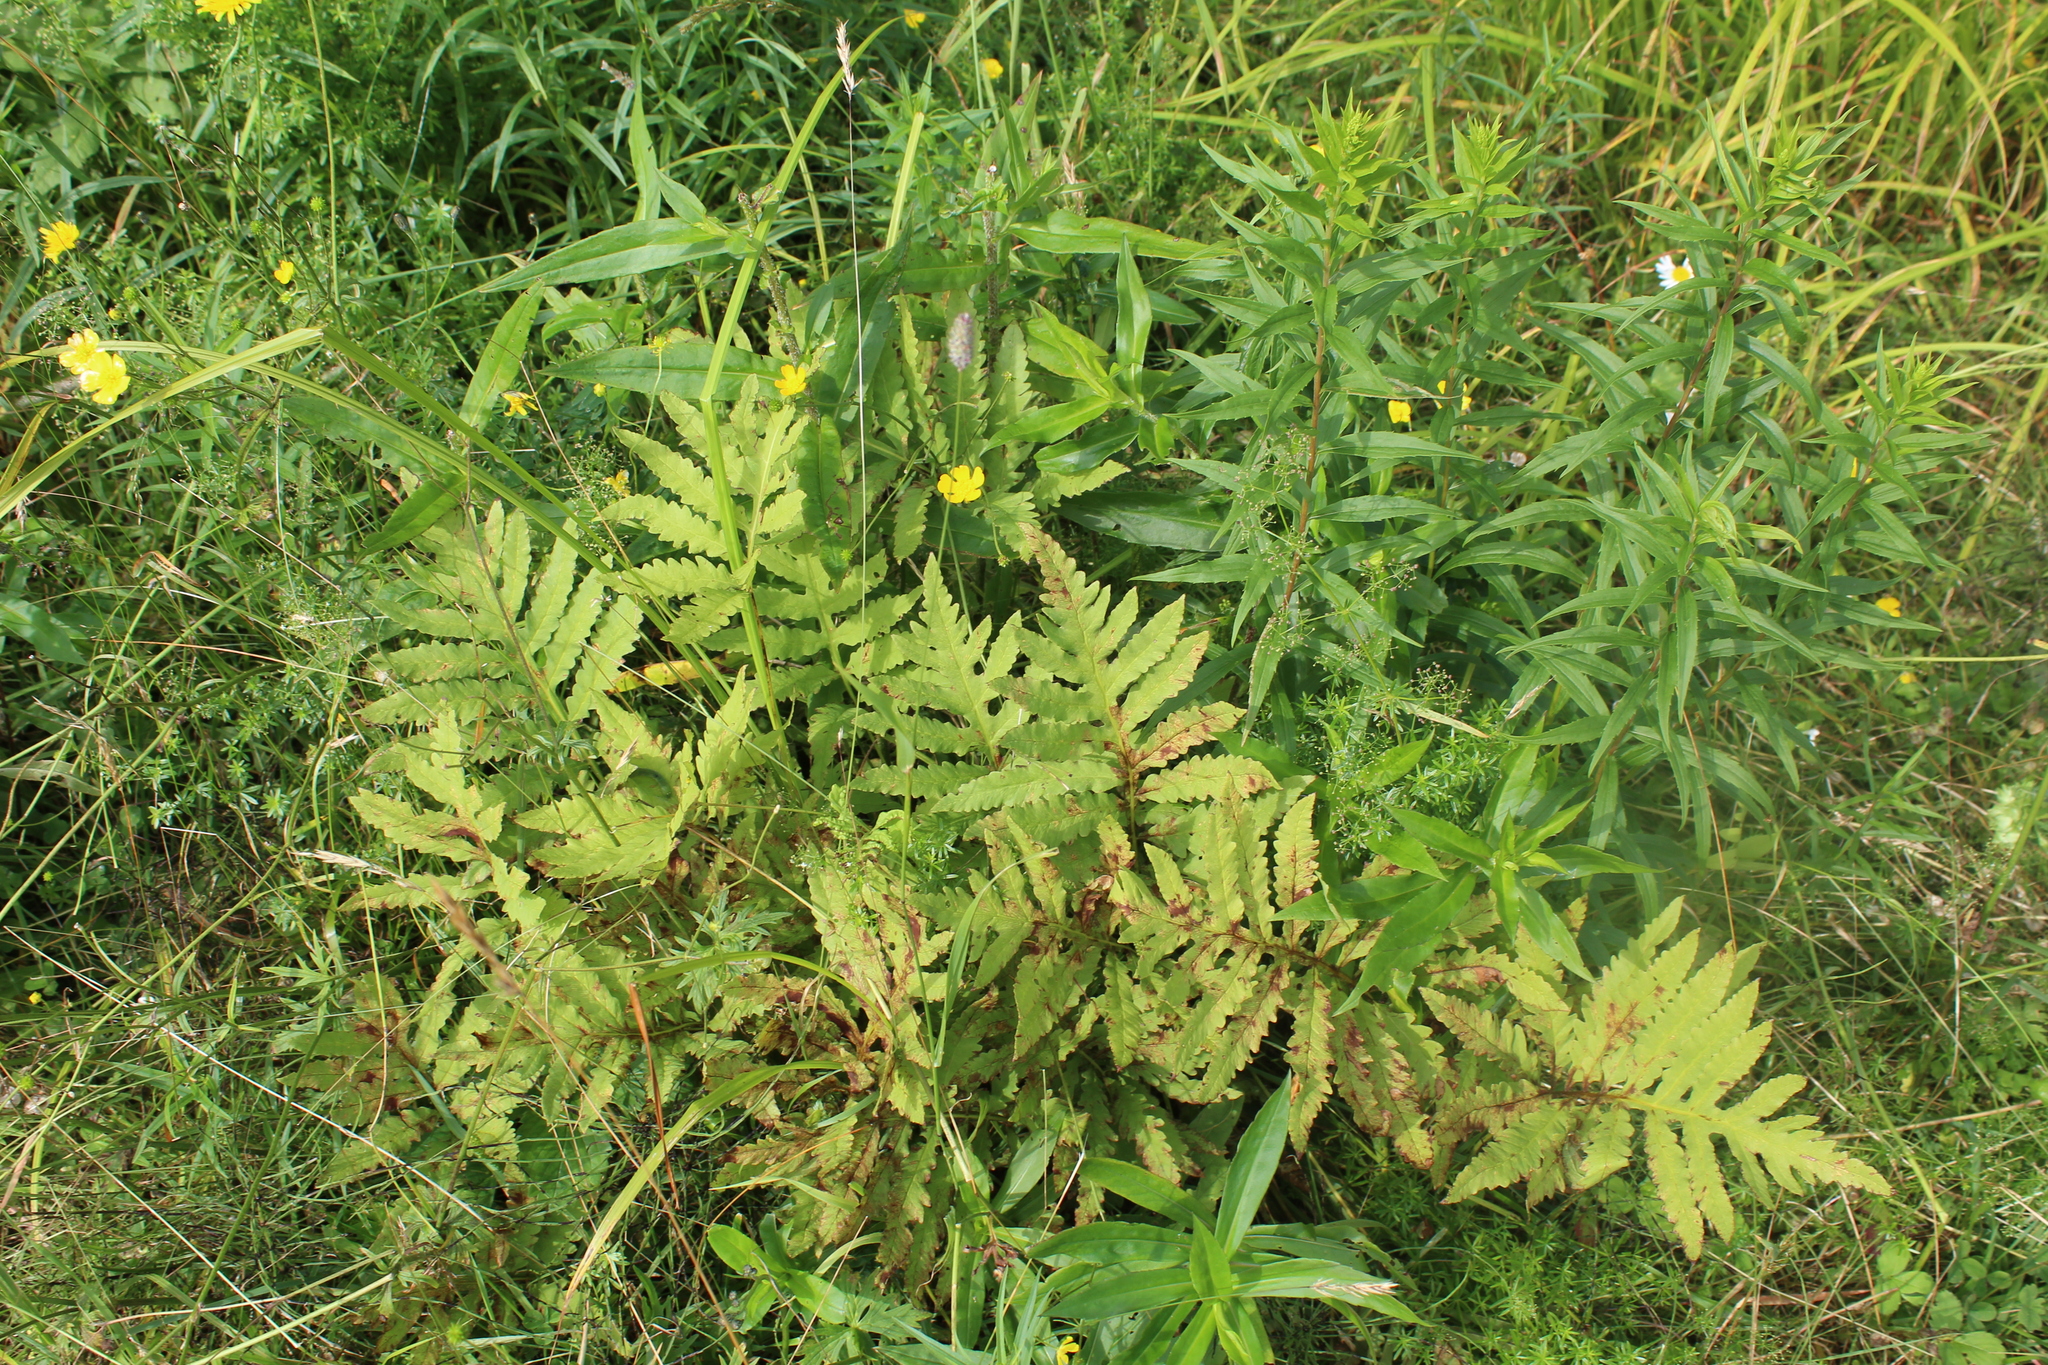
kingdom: Plantae
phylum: Tracheophyta
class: Polypodiopsida
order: Polypodiales
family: Onocleaceae
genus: Onoclea
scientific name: Onoclea sensibilis
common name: Sensitive fern
